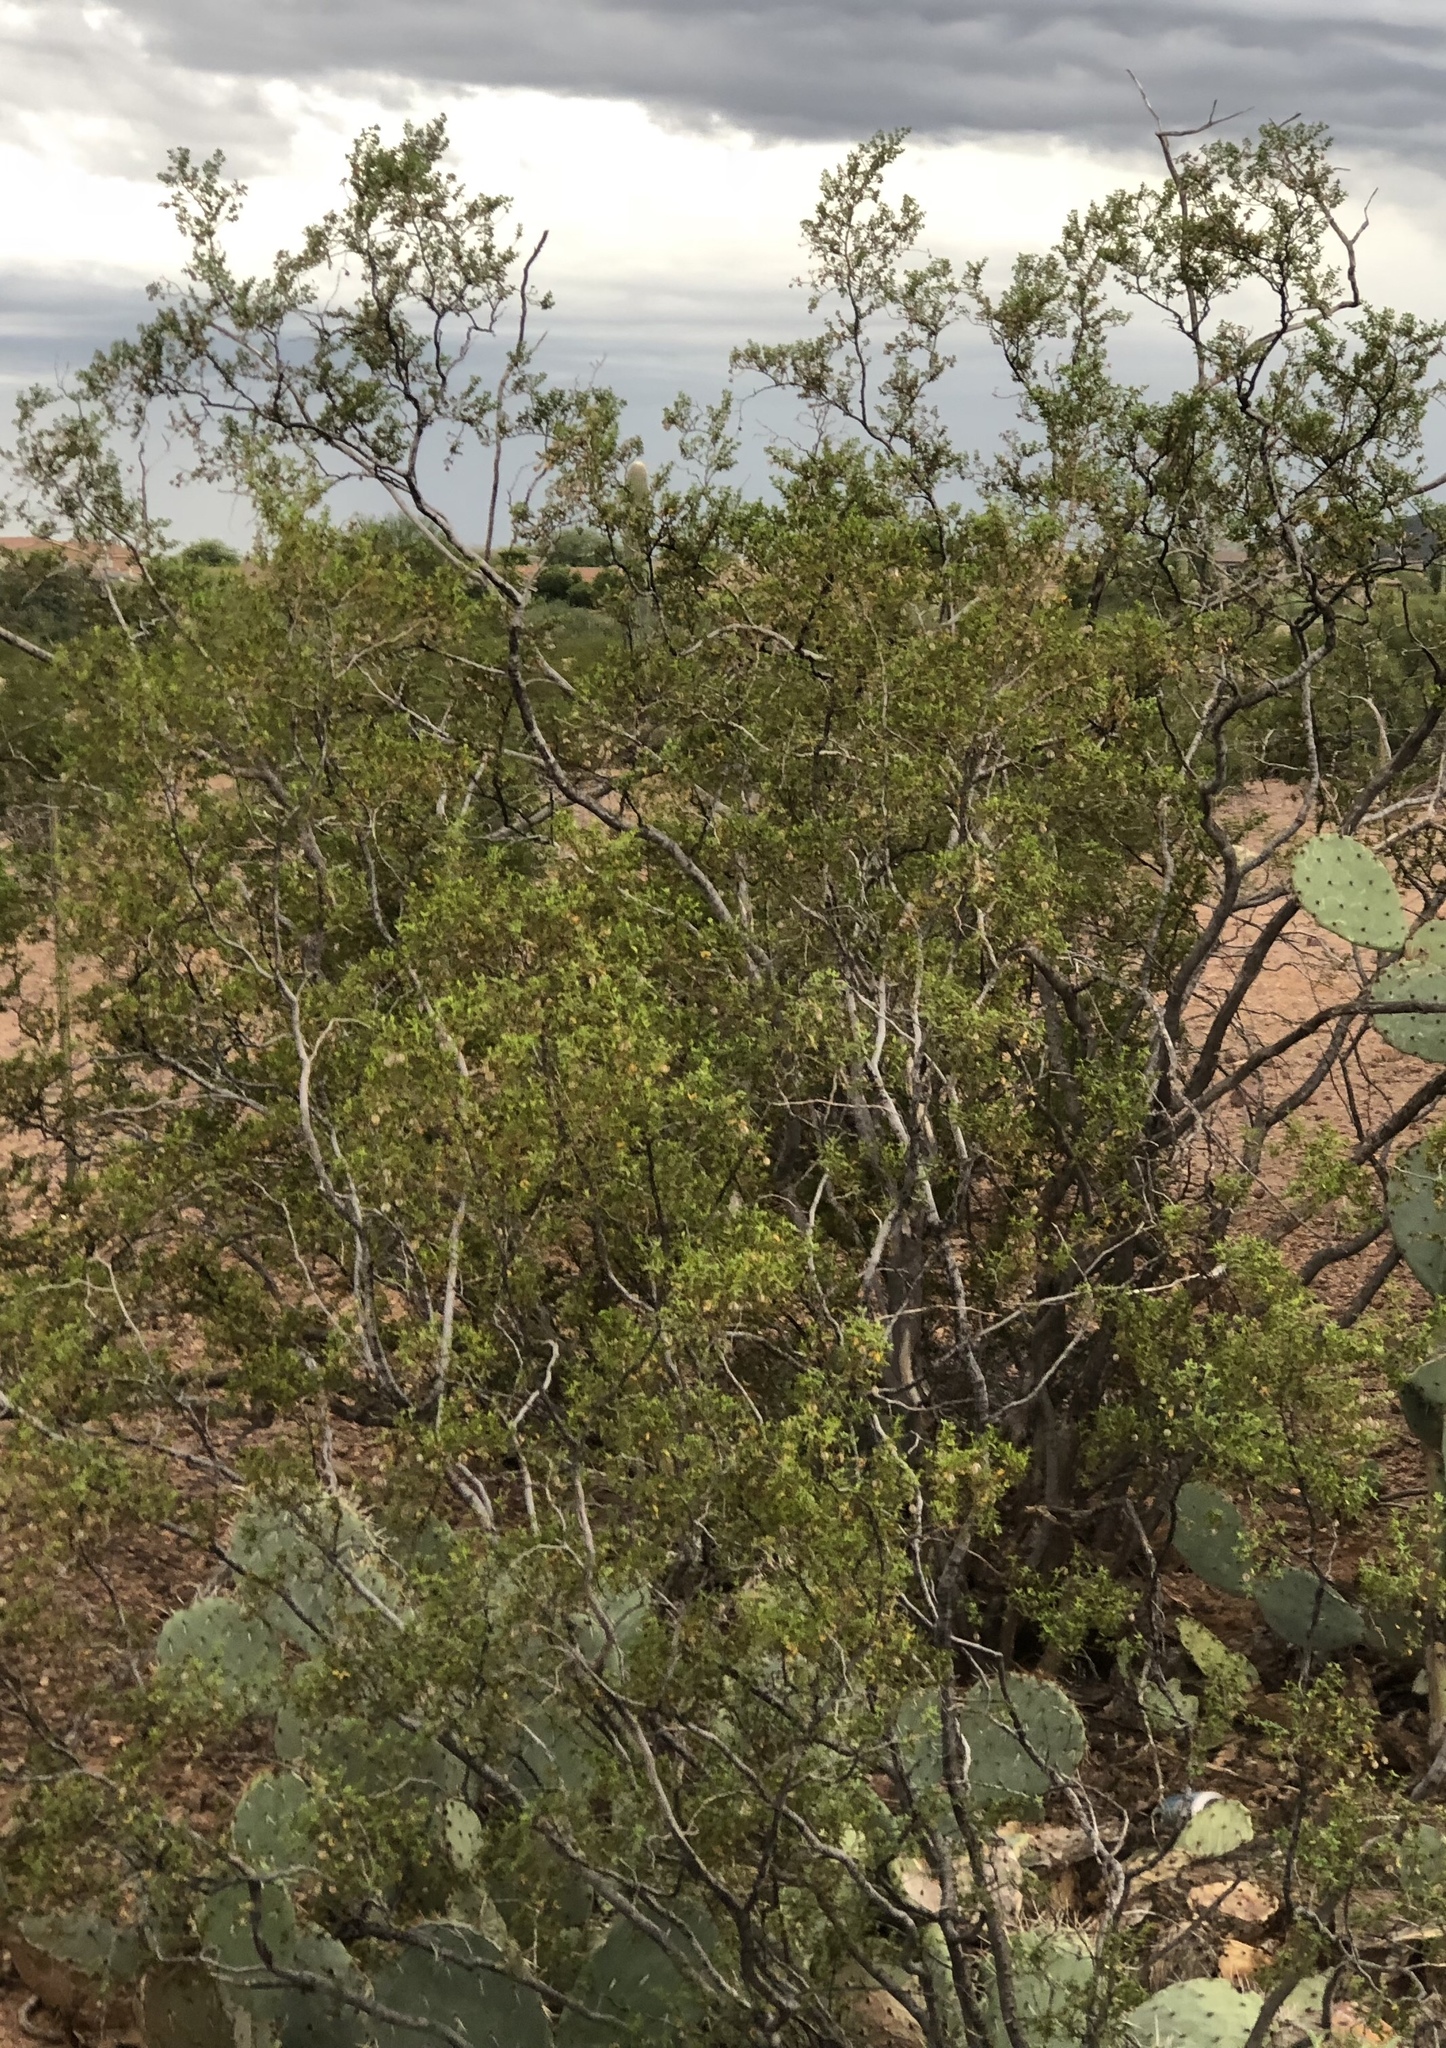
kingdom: Plantae
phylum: Tracheophyta
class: Magnoliopsida
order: Zygophyllales
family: Zygophyllaceae
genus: Larrea
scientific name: Larrea tridentata
